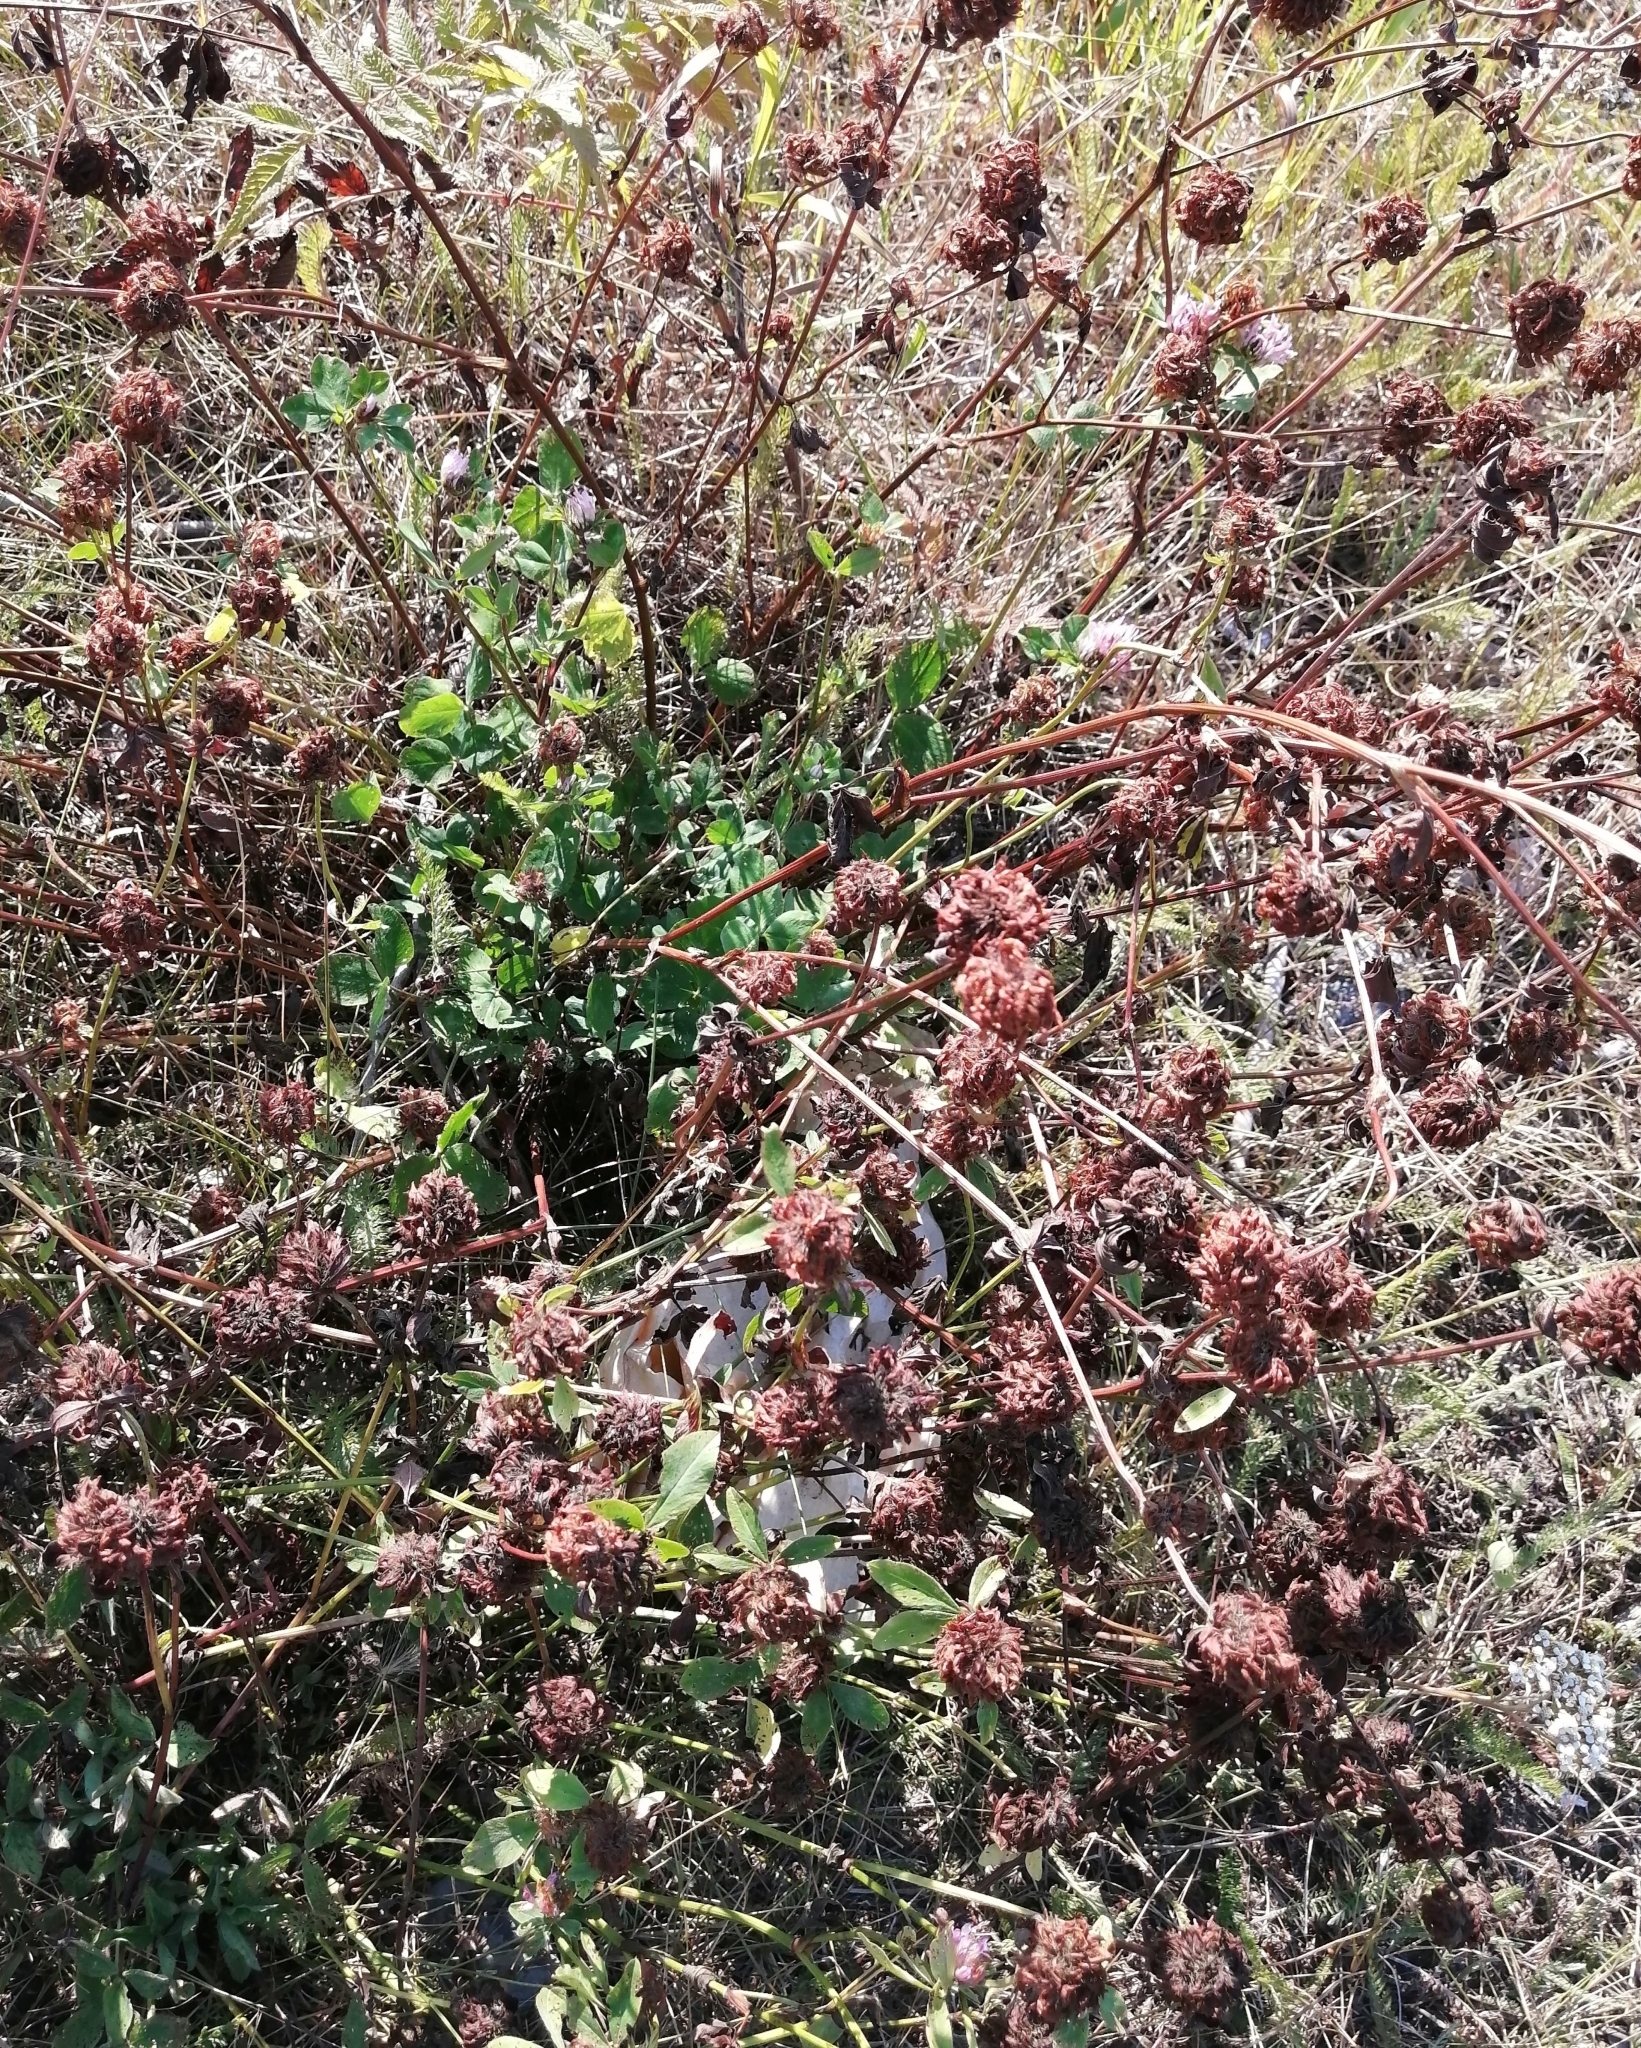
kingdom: Plantae
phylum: Tracheophyta
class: Magnoliopsida
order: Fabales
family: Fabaceae
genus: Trifolium
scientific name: Trifolium pratense
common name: Red clover
